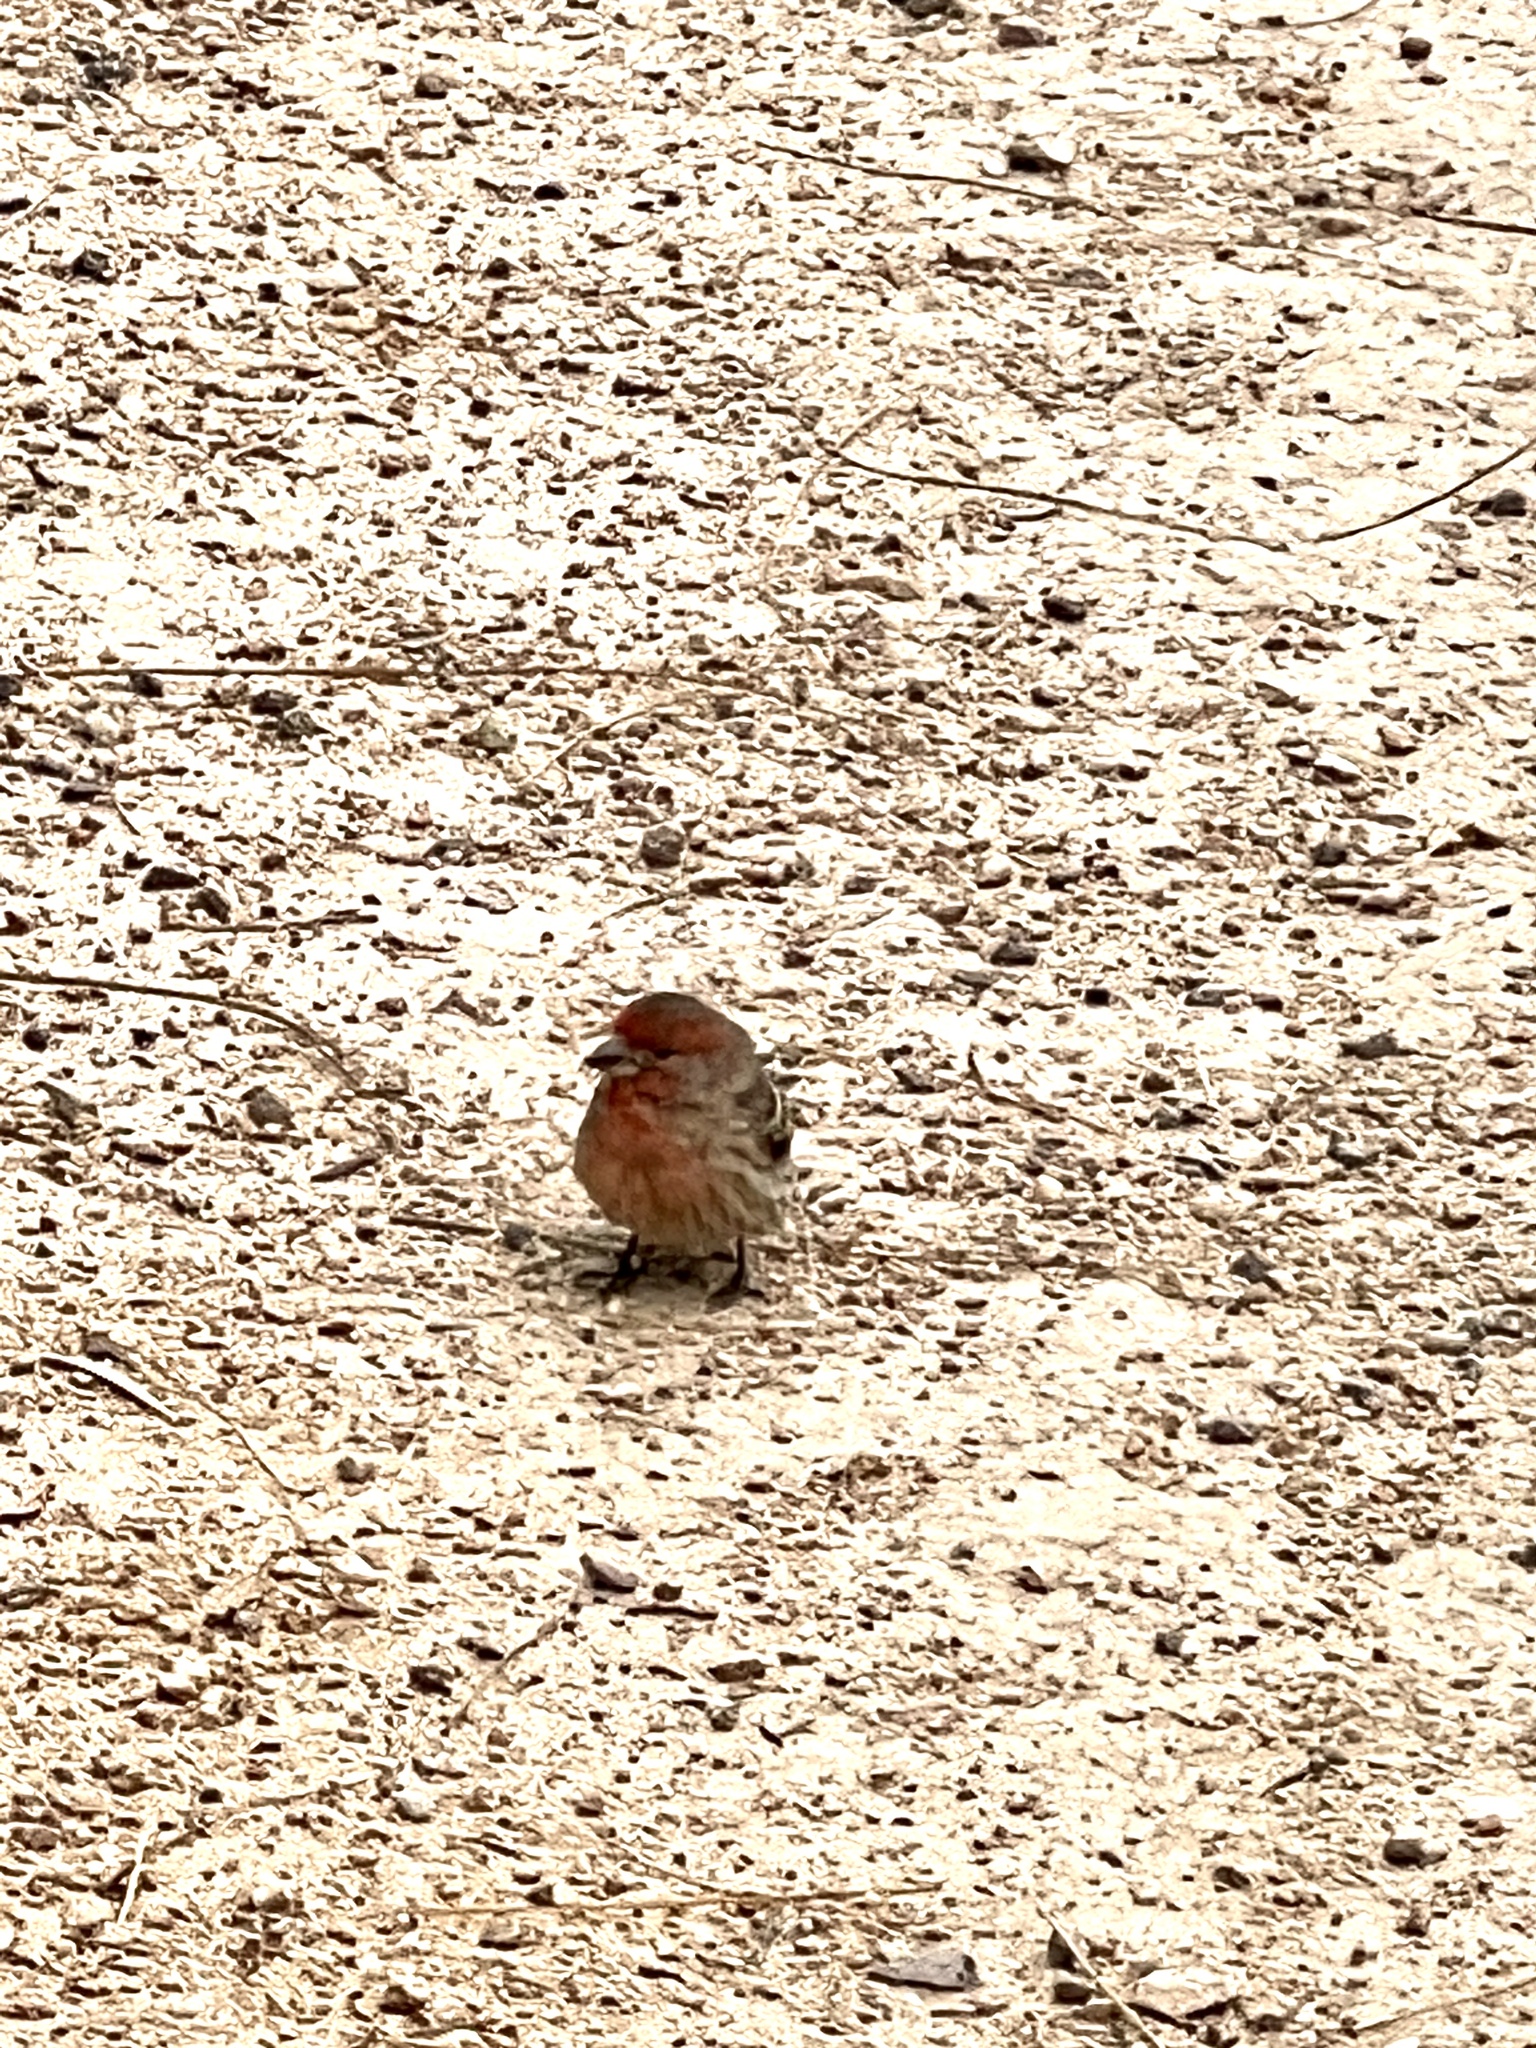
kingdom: Animalia
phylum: Chordata
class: Aves
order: Passeriformes
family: Fringillidae
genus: Haemorhous
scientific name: Haemorhous mexicanus
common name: House finch
